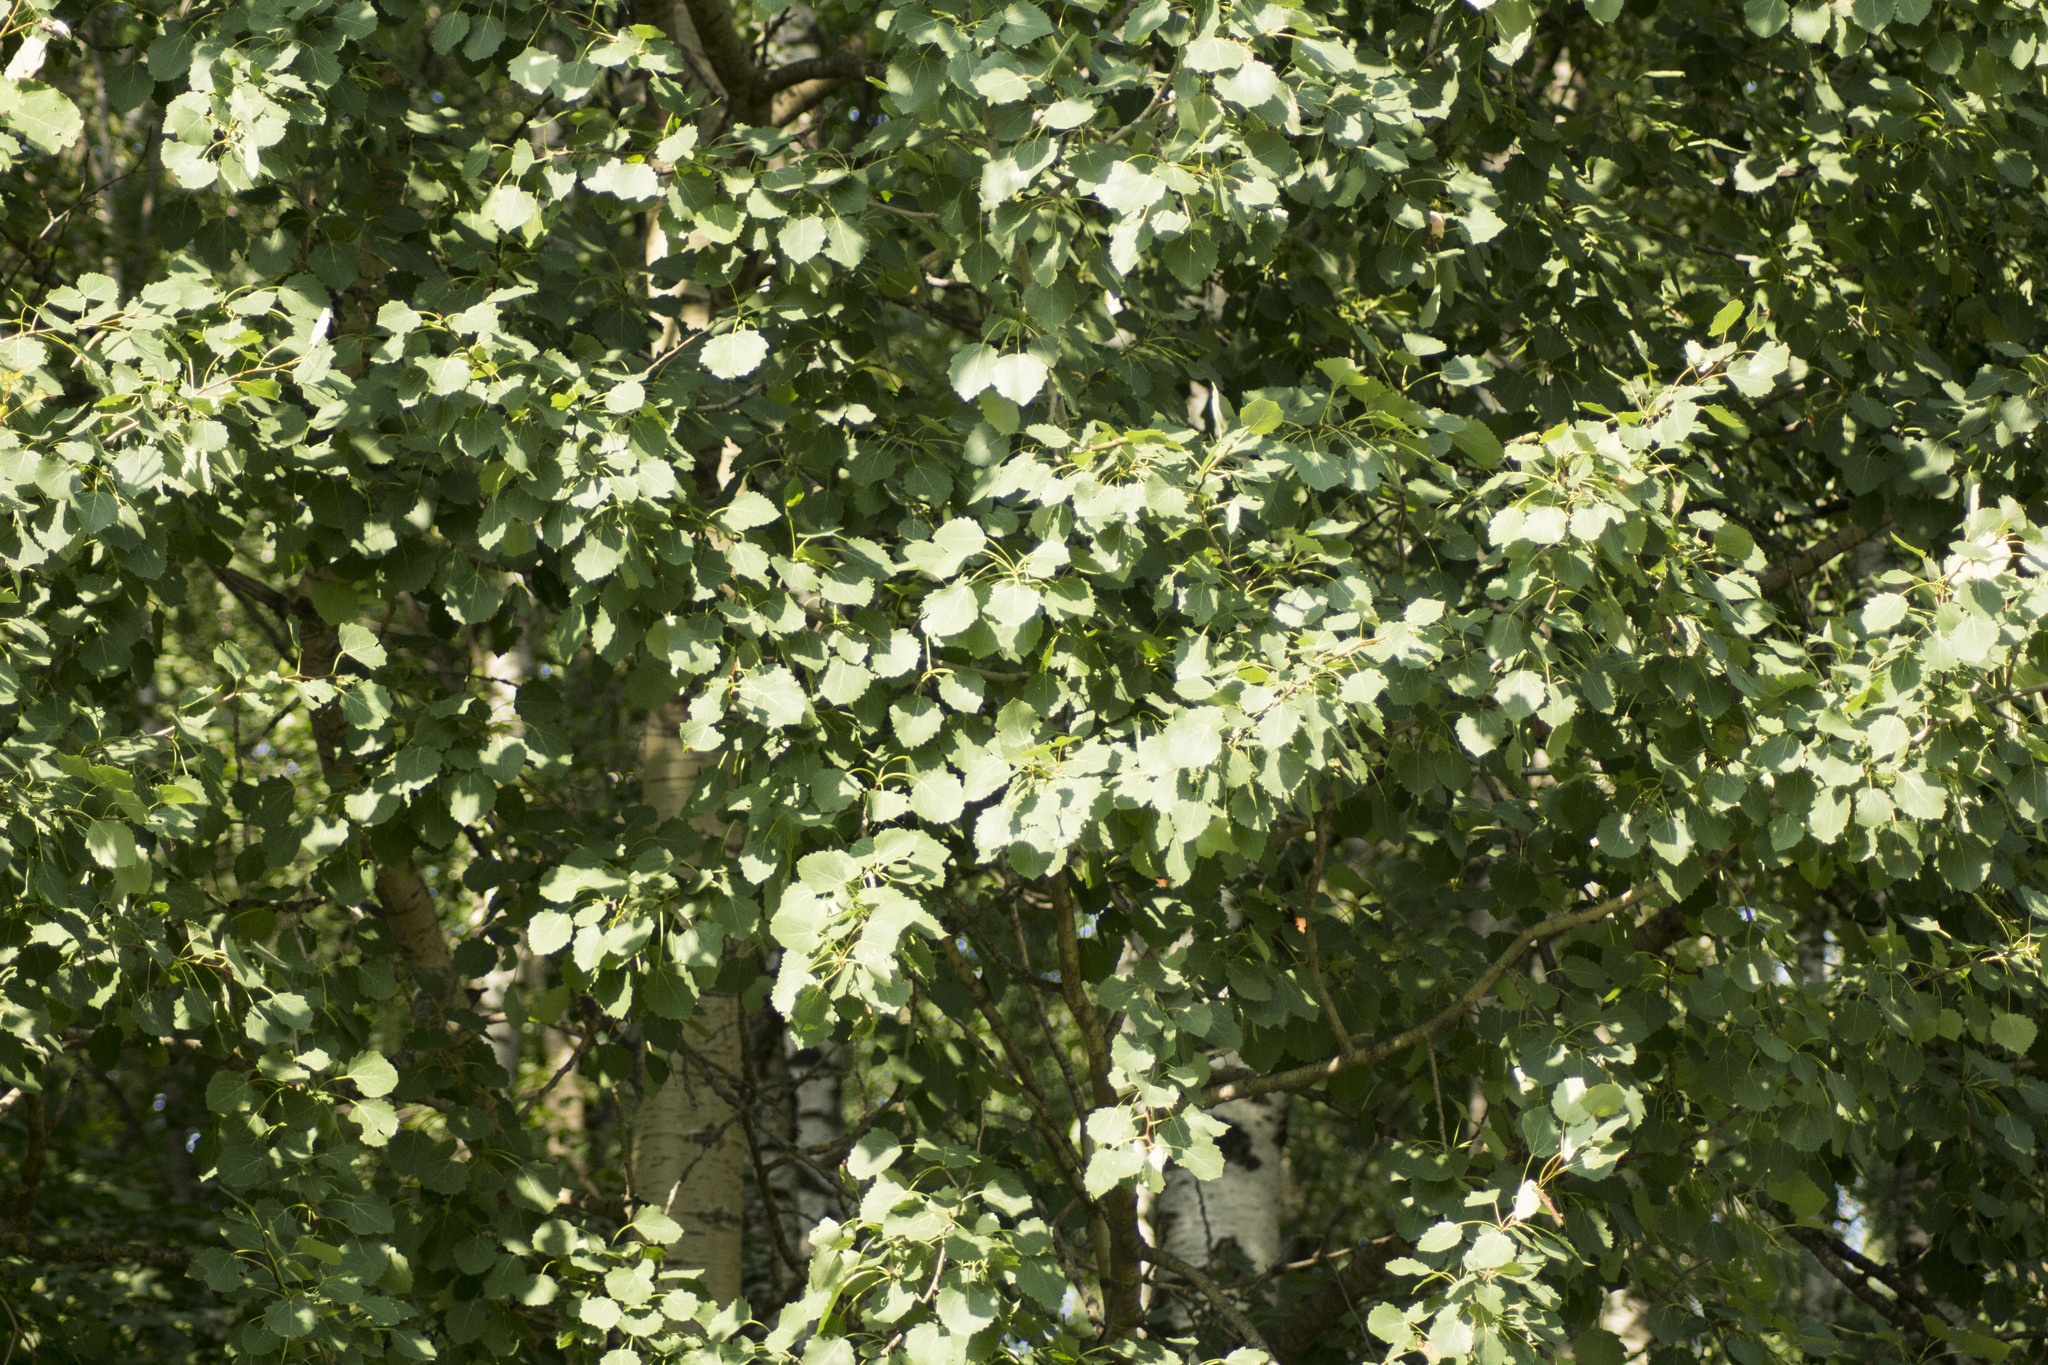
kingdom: Plantae
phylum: Tracheophyta
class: Magnoliopsida
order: Malpighiales
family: Salicaceae
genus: Populus
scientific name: Populus tremula
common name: European aspen
